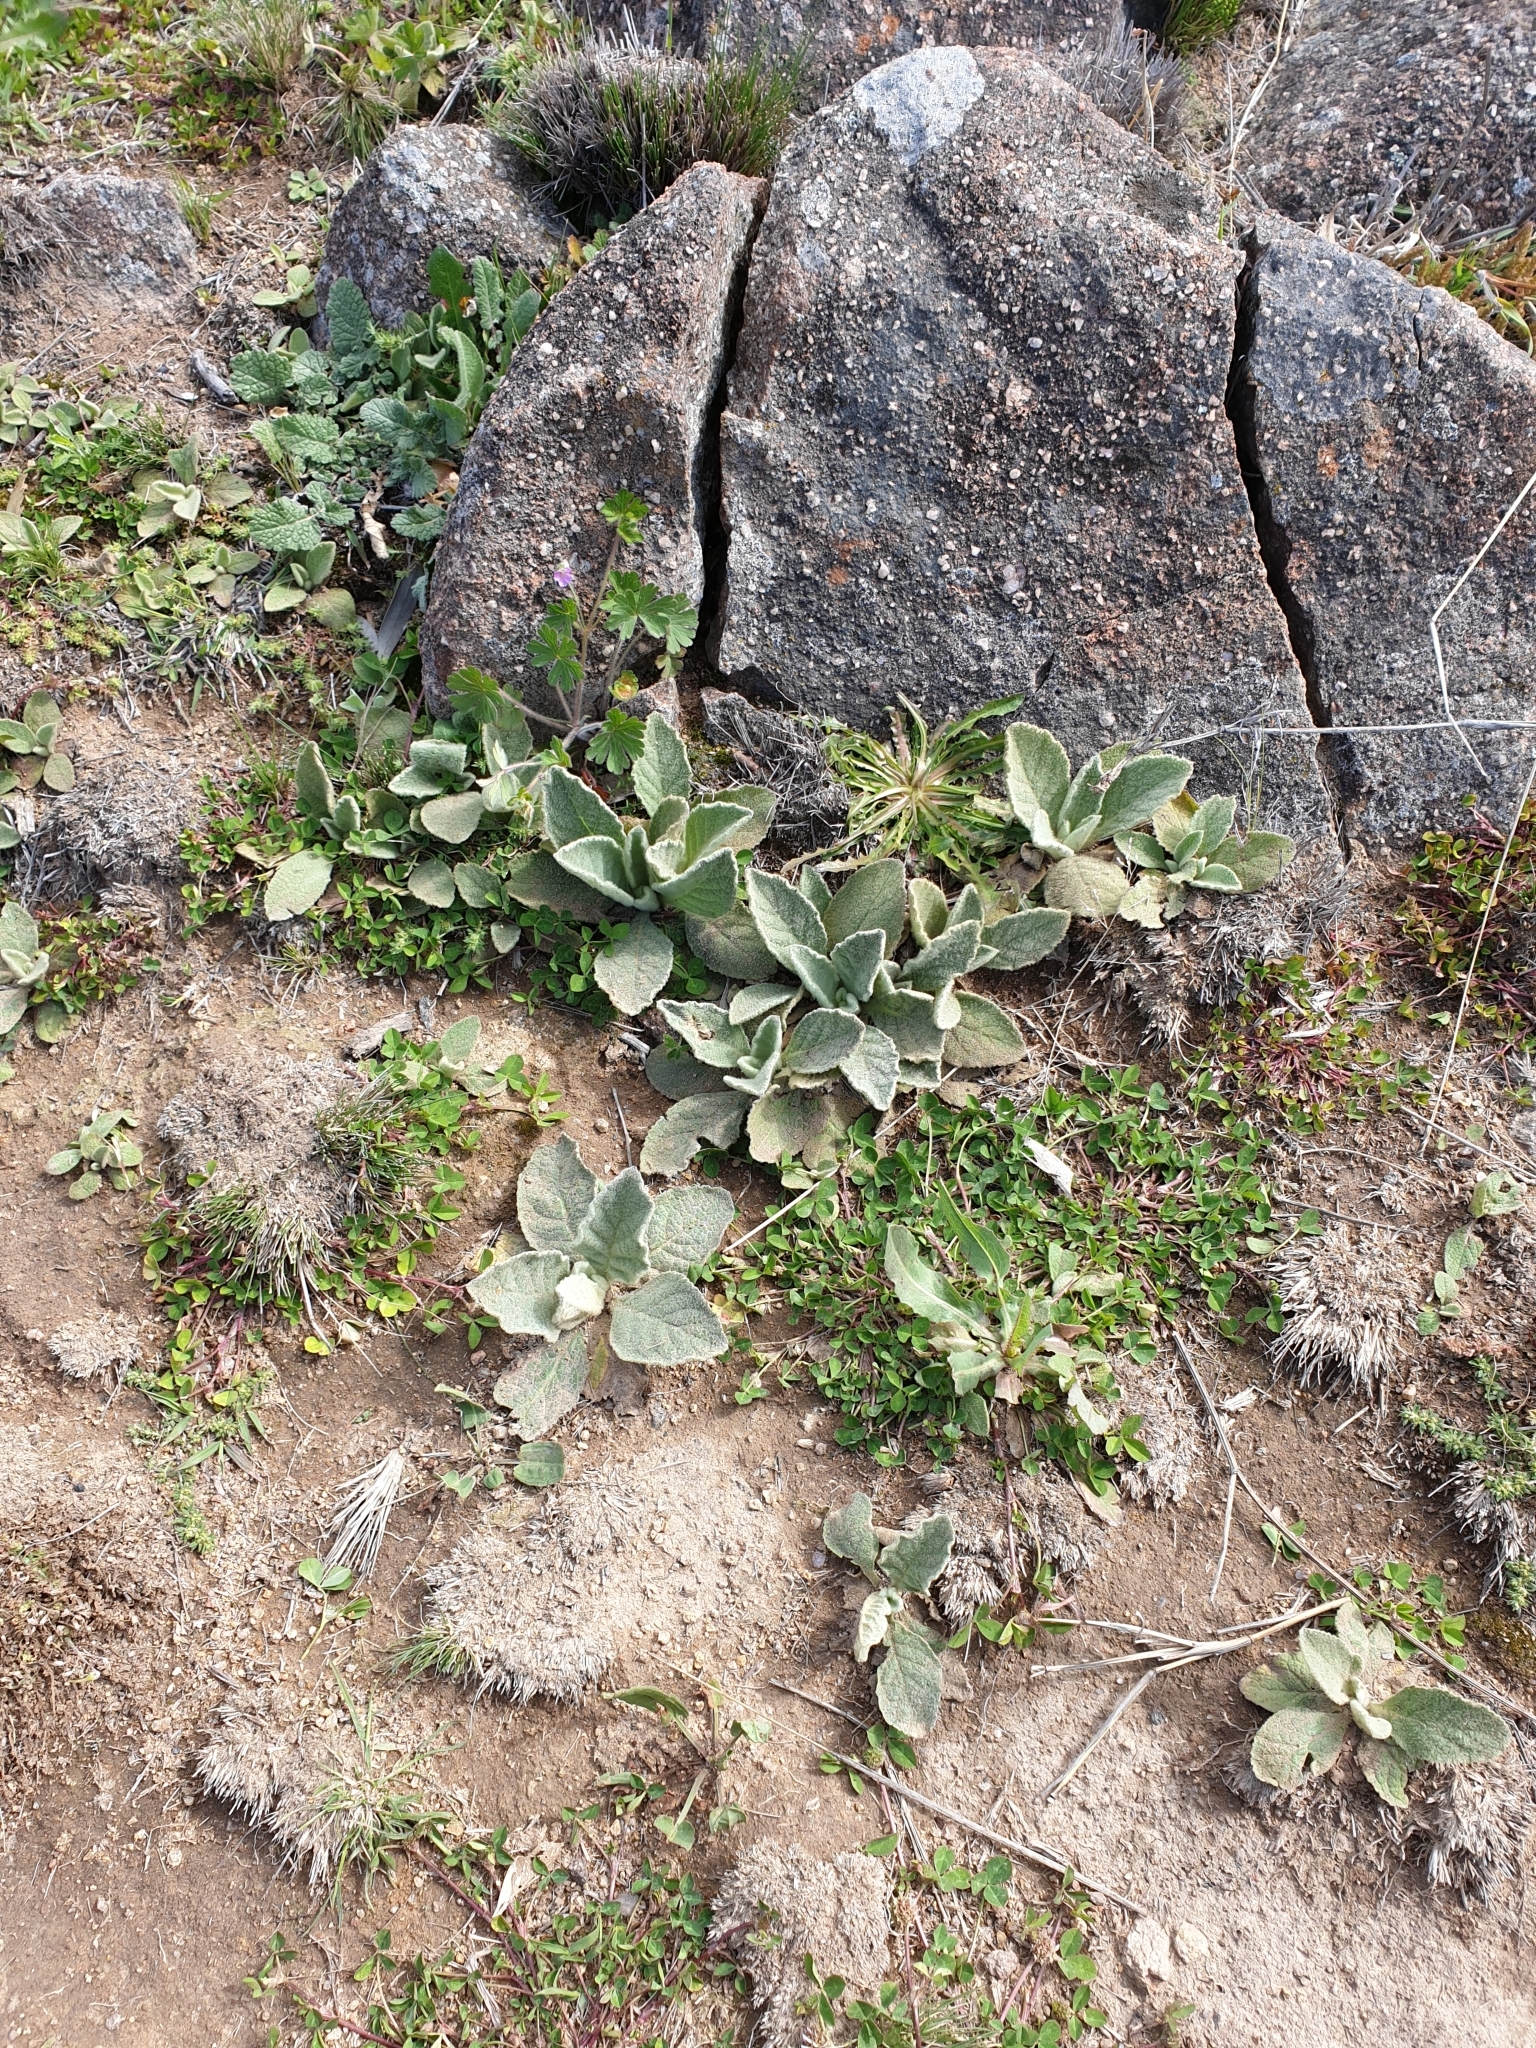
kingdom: Plantae
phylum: Tracheophyta
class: Magnoliopsida
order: Lamiales
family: Scrophulariaceae
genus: Verbascum
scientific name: Verbascum thapsus
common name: Common mullein
